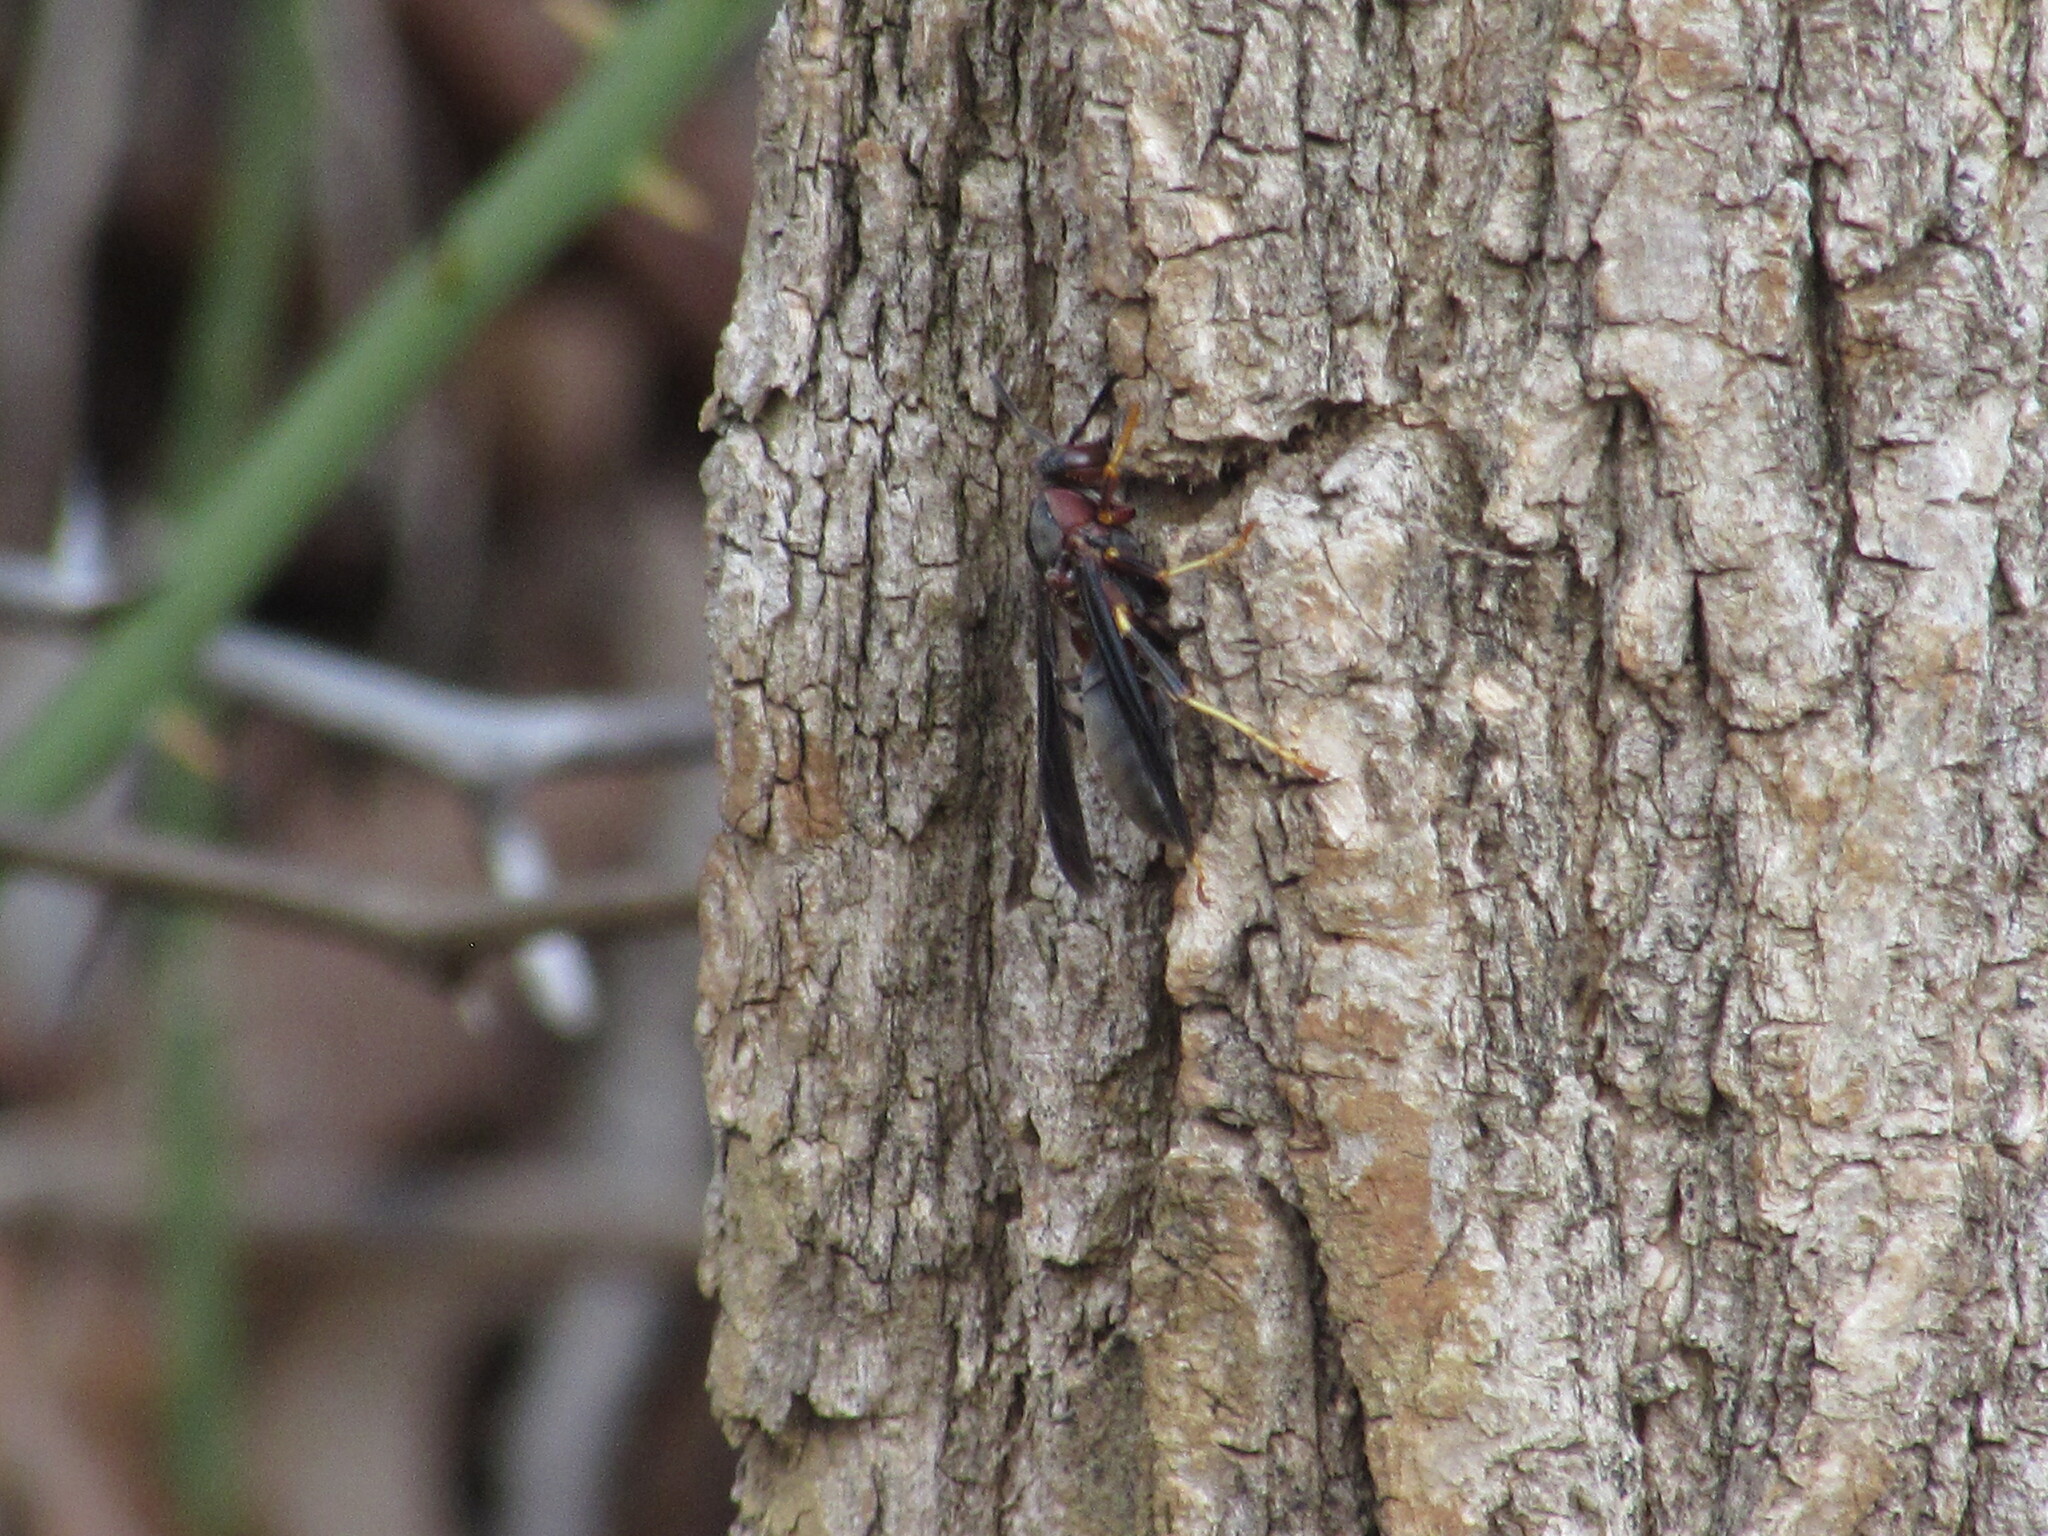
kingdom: Animalia
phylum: Arthropoda
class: Insecta
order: Hymenoptera
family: Eumenidae
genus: Polistes
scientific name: Polistes metricus
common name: Metric paper wasp
